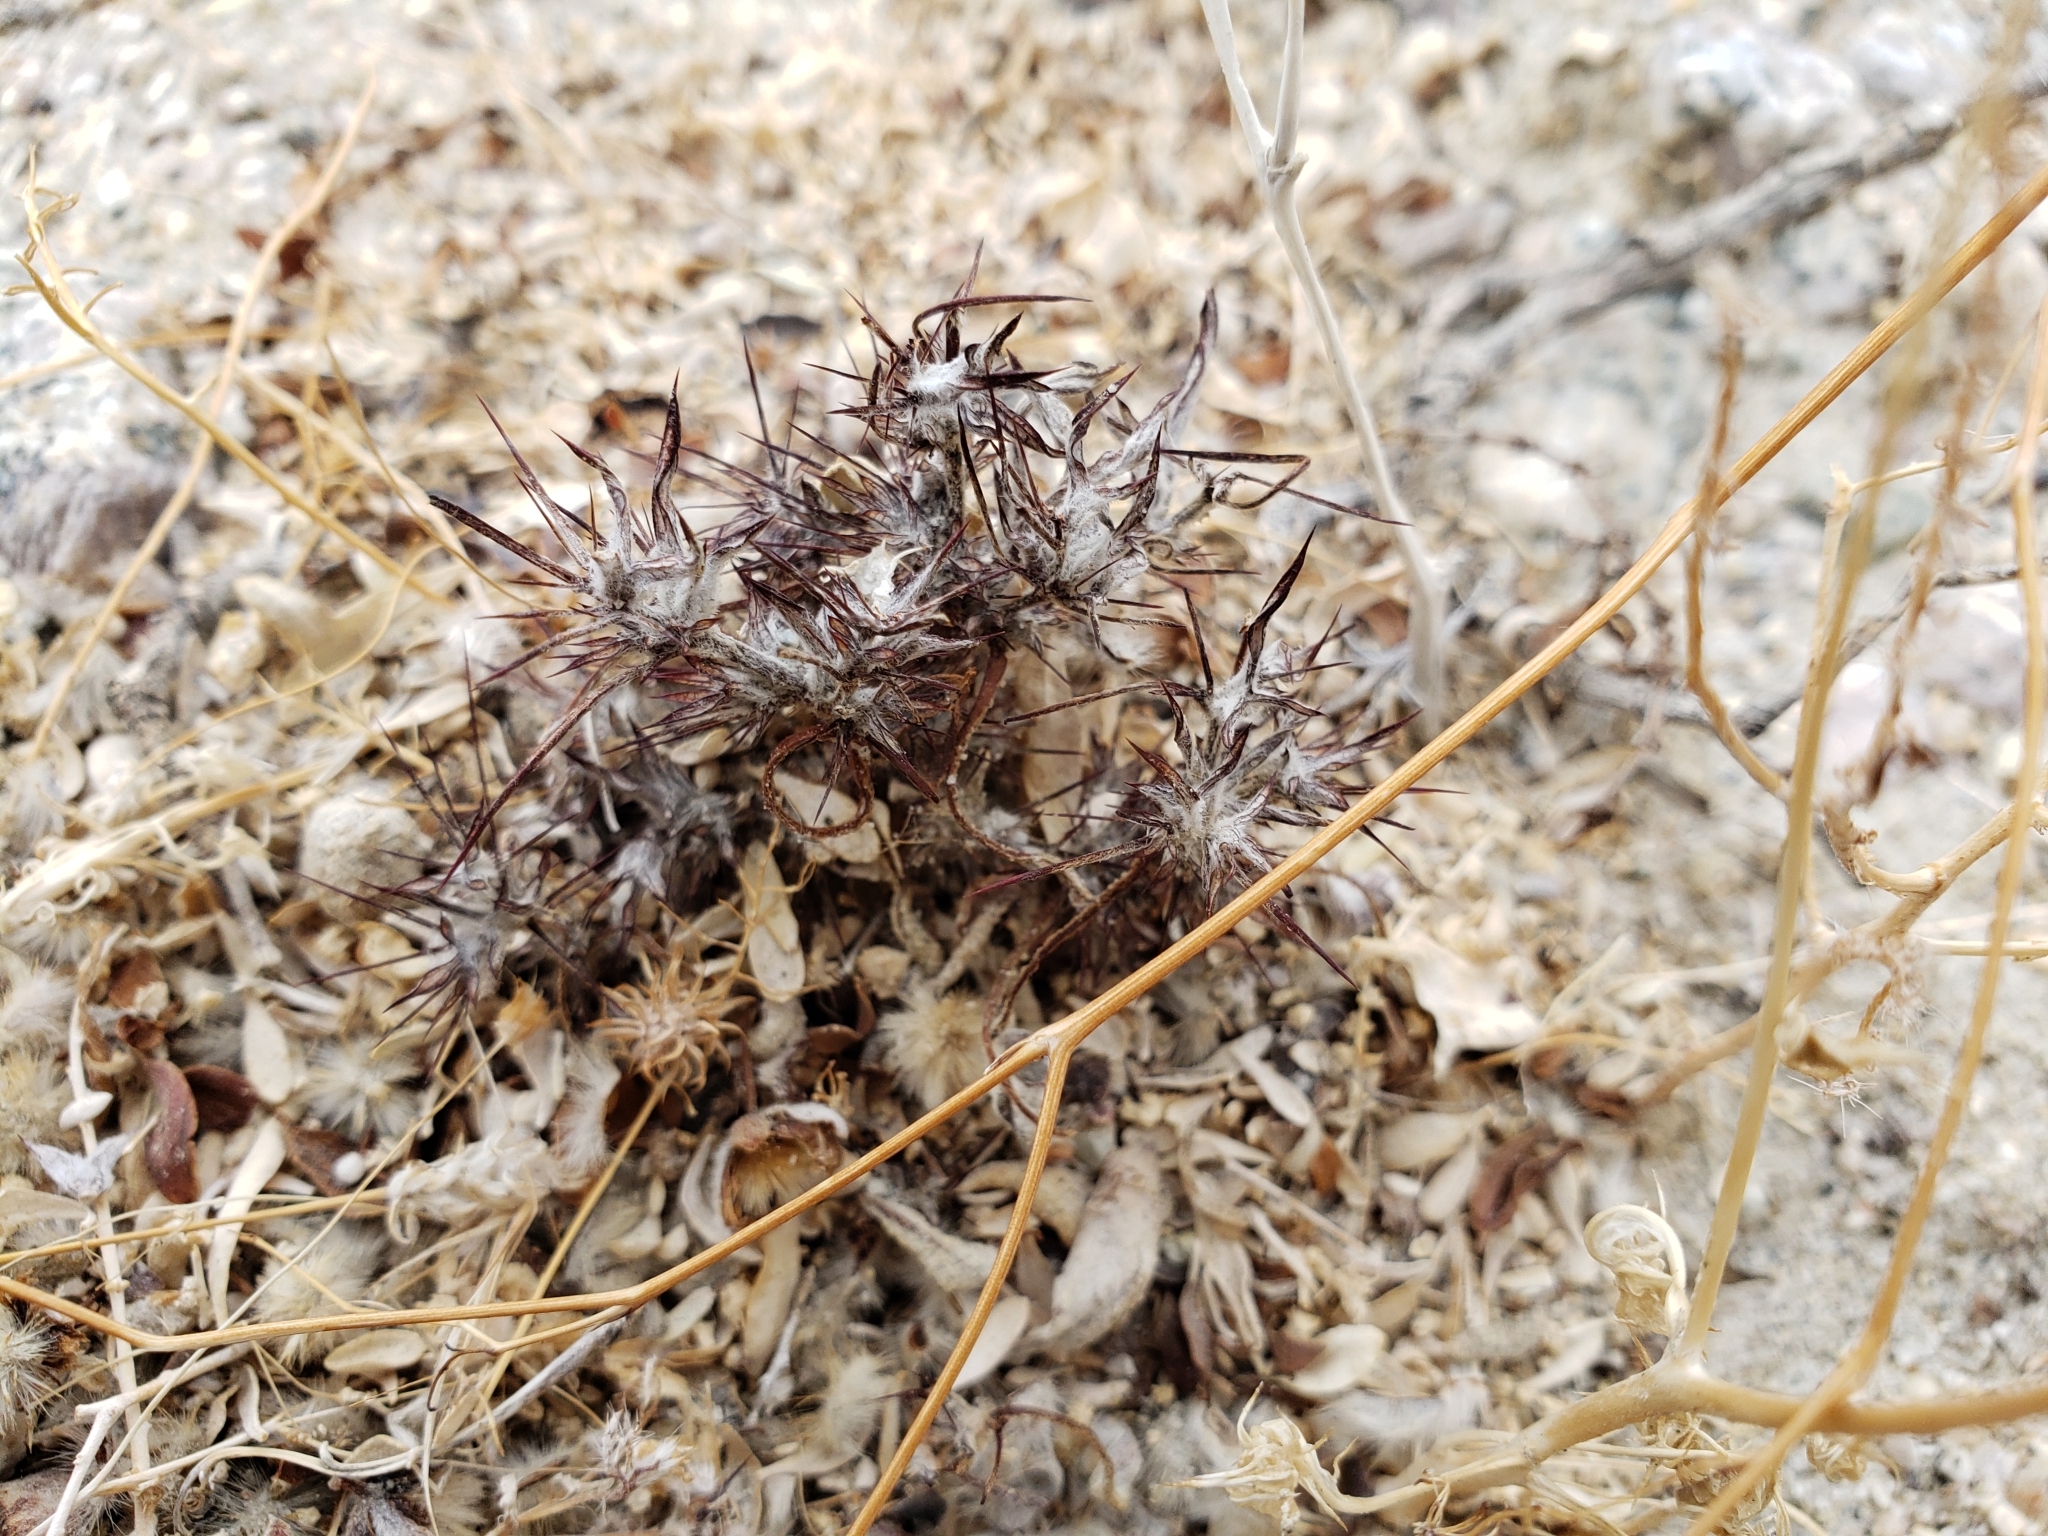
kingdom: Plantae
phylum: Tracheophyta
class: Magnoliopsida
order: Caryophyllales
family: Polygonaceae
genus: Chorizanthe
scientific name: Chorizanthe rigida
